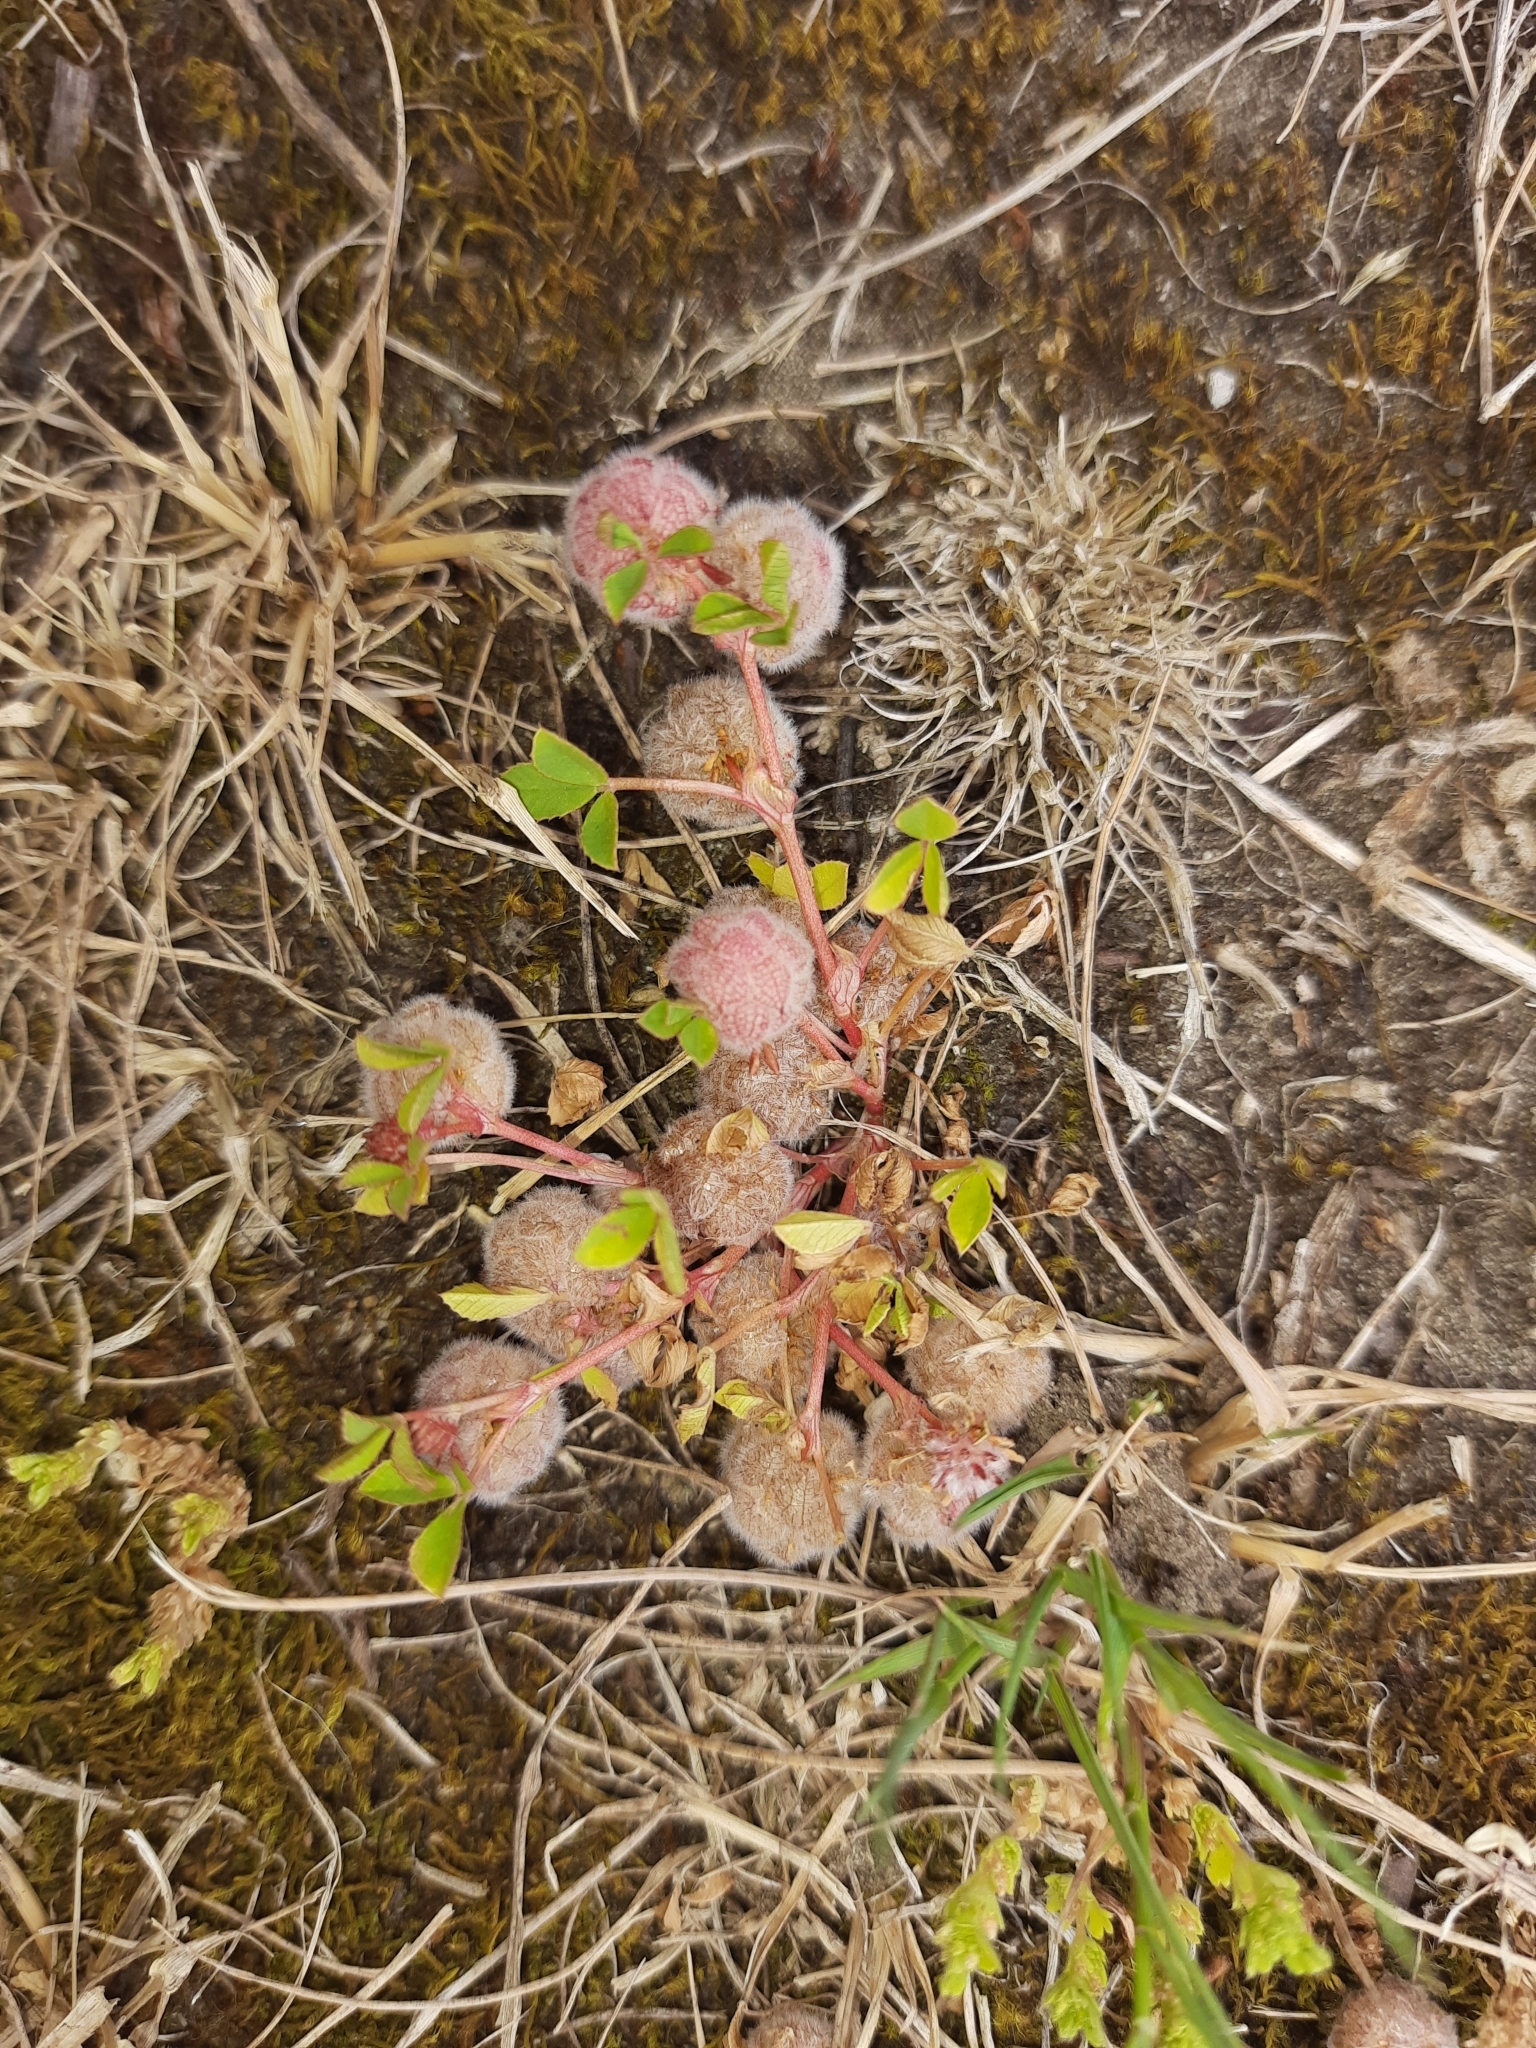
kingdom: Plantae
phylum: Tracheophyta
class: Magnoliopsida
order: Fabales
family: Fabaceae
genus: Trifolium
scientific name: Trifolium tomentosum
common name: Woolly clover
